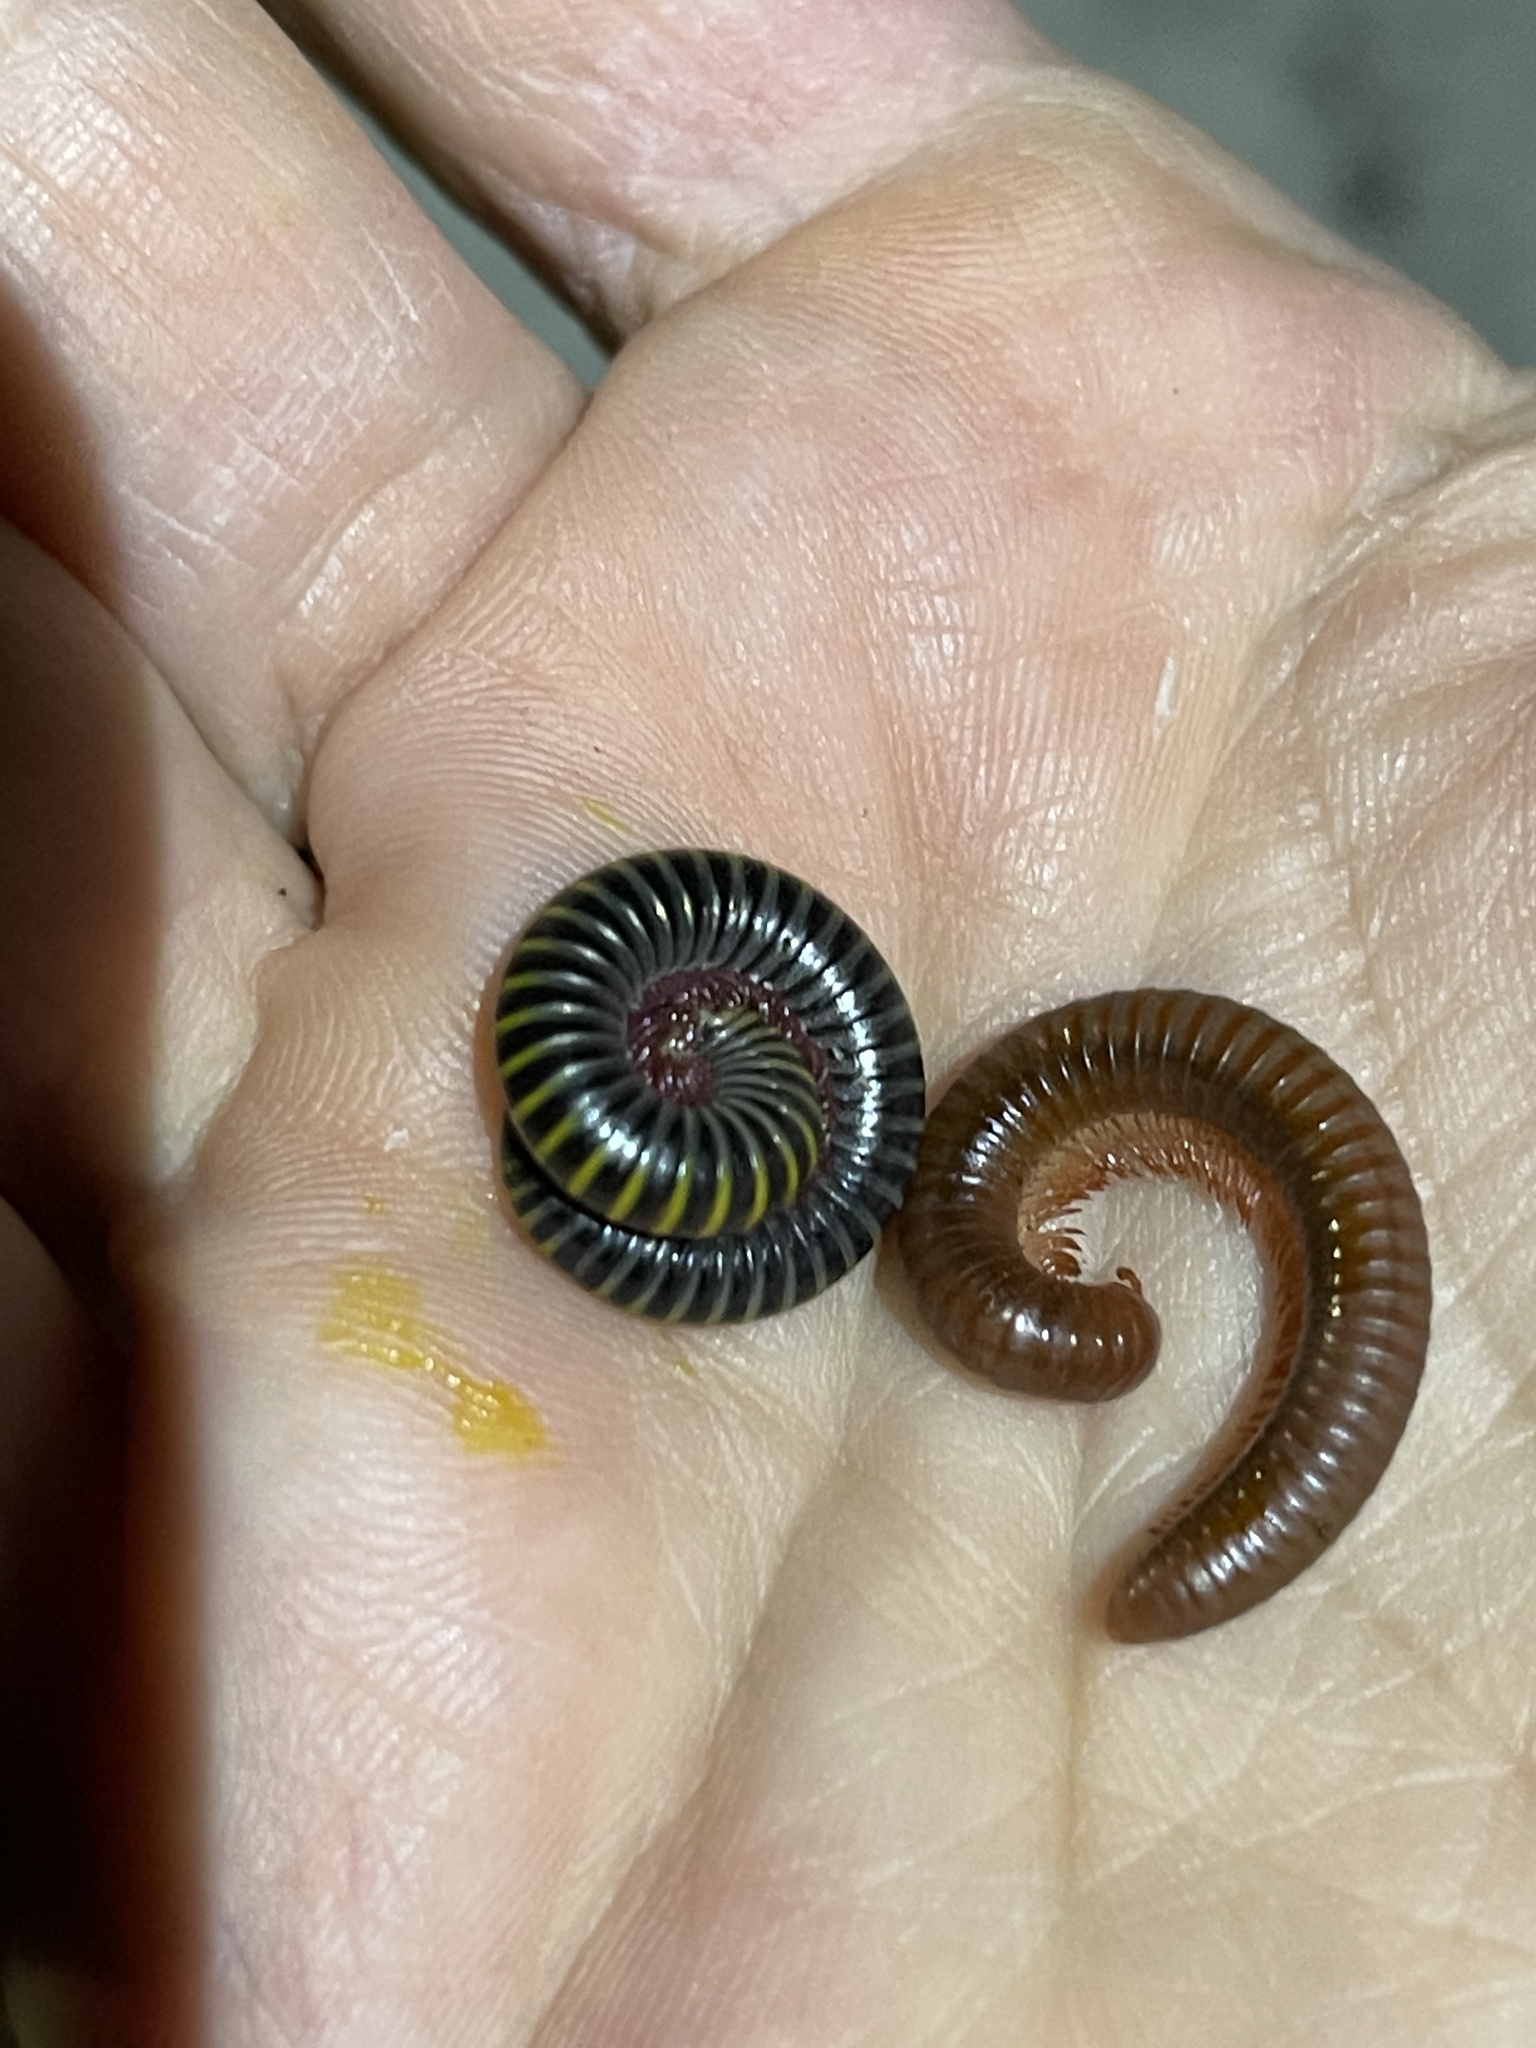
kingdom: Animalia
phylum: Arthropoda
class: Diplopoda
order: Spirobolida
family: Pachybolidae
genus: Trigoniulus
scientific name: Trigoniulus corallinus
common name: Millipede
